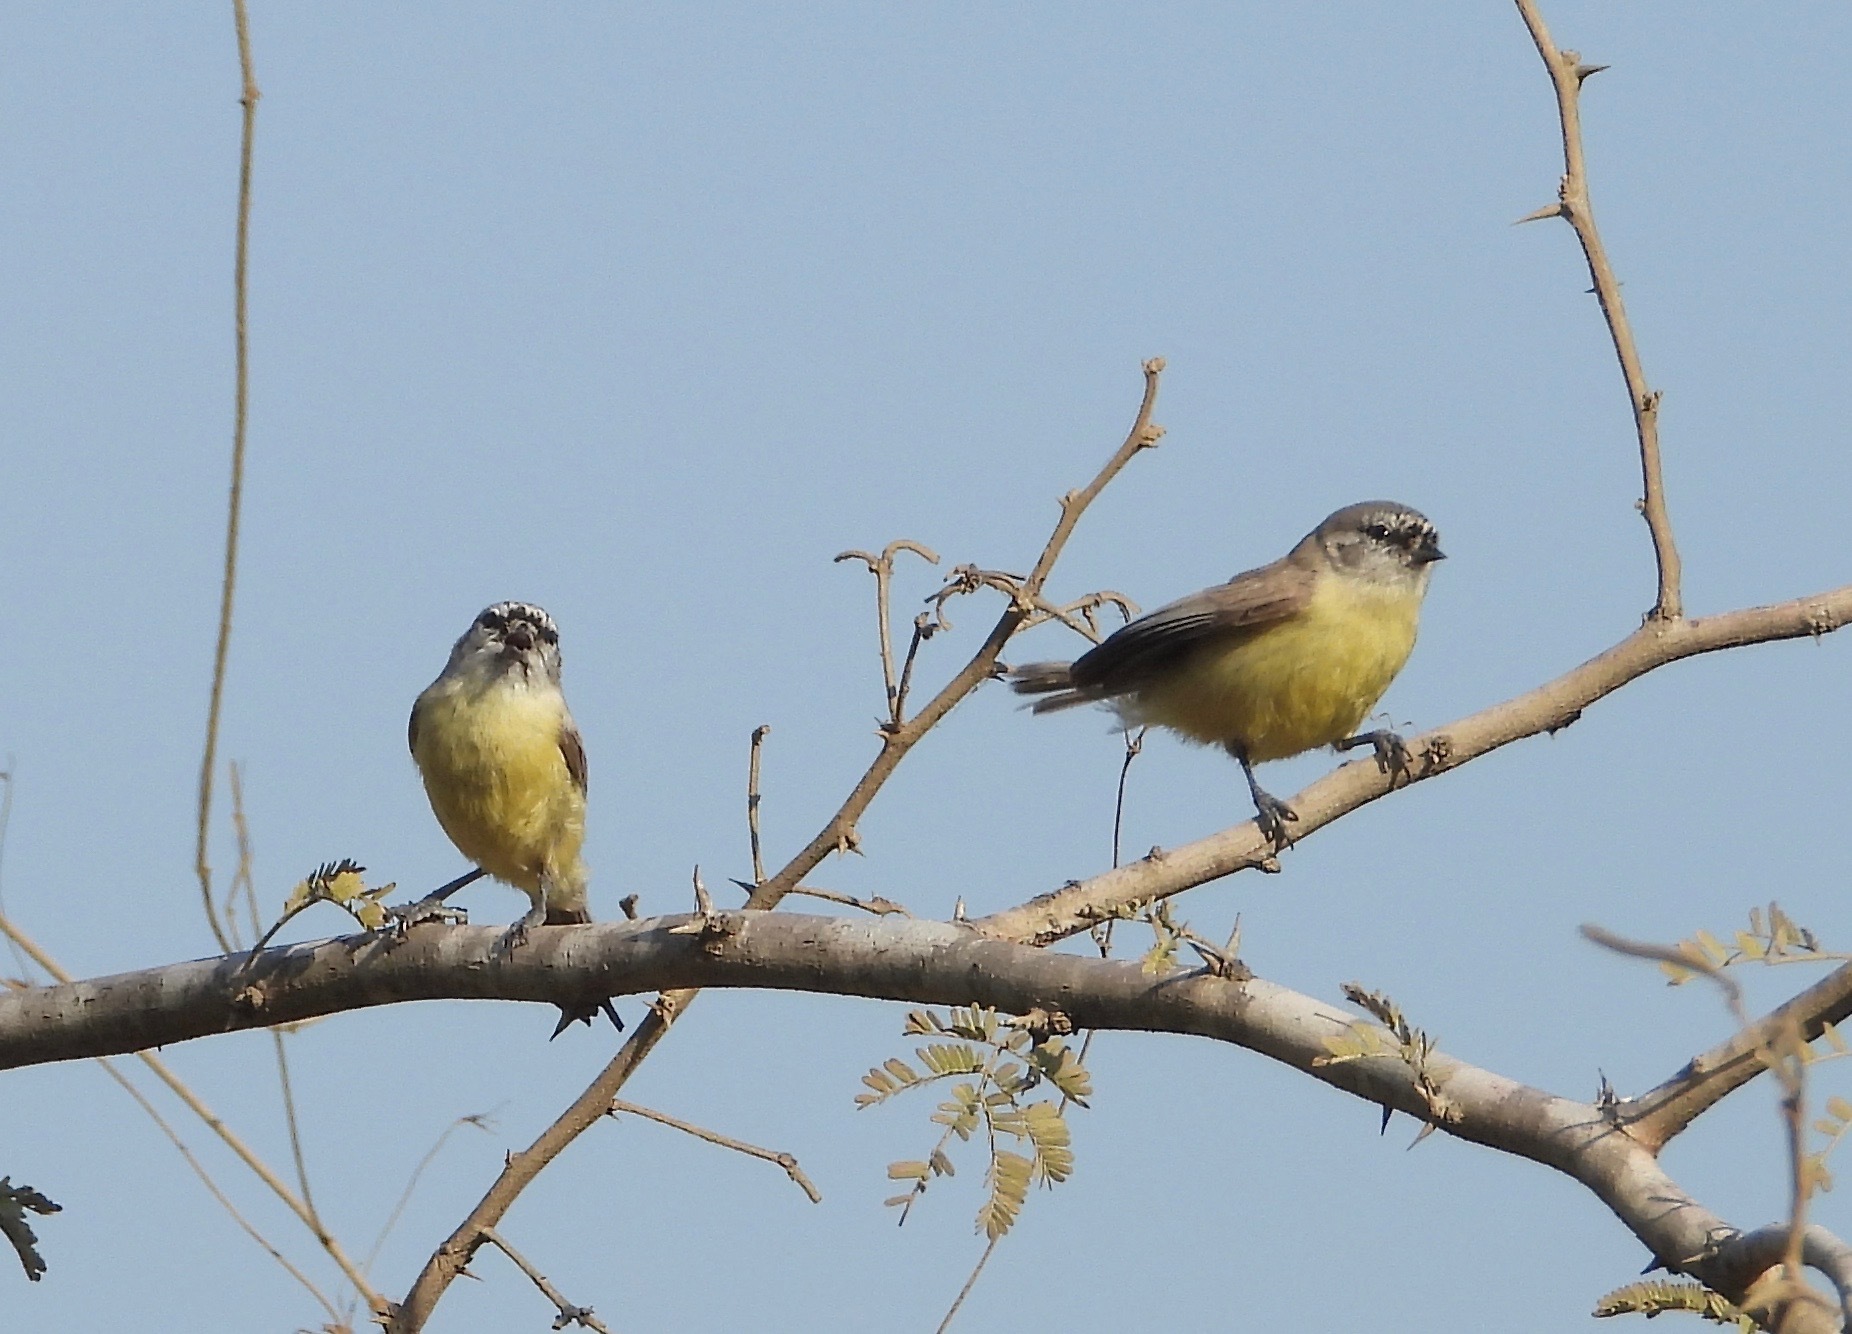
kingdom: Animalia
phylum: Chordata
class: Aves
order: Passeriformes
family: Remizidae
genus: Anthoscopus
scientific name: Anthoscopus minutus
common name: Cape penduline tit
